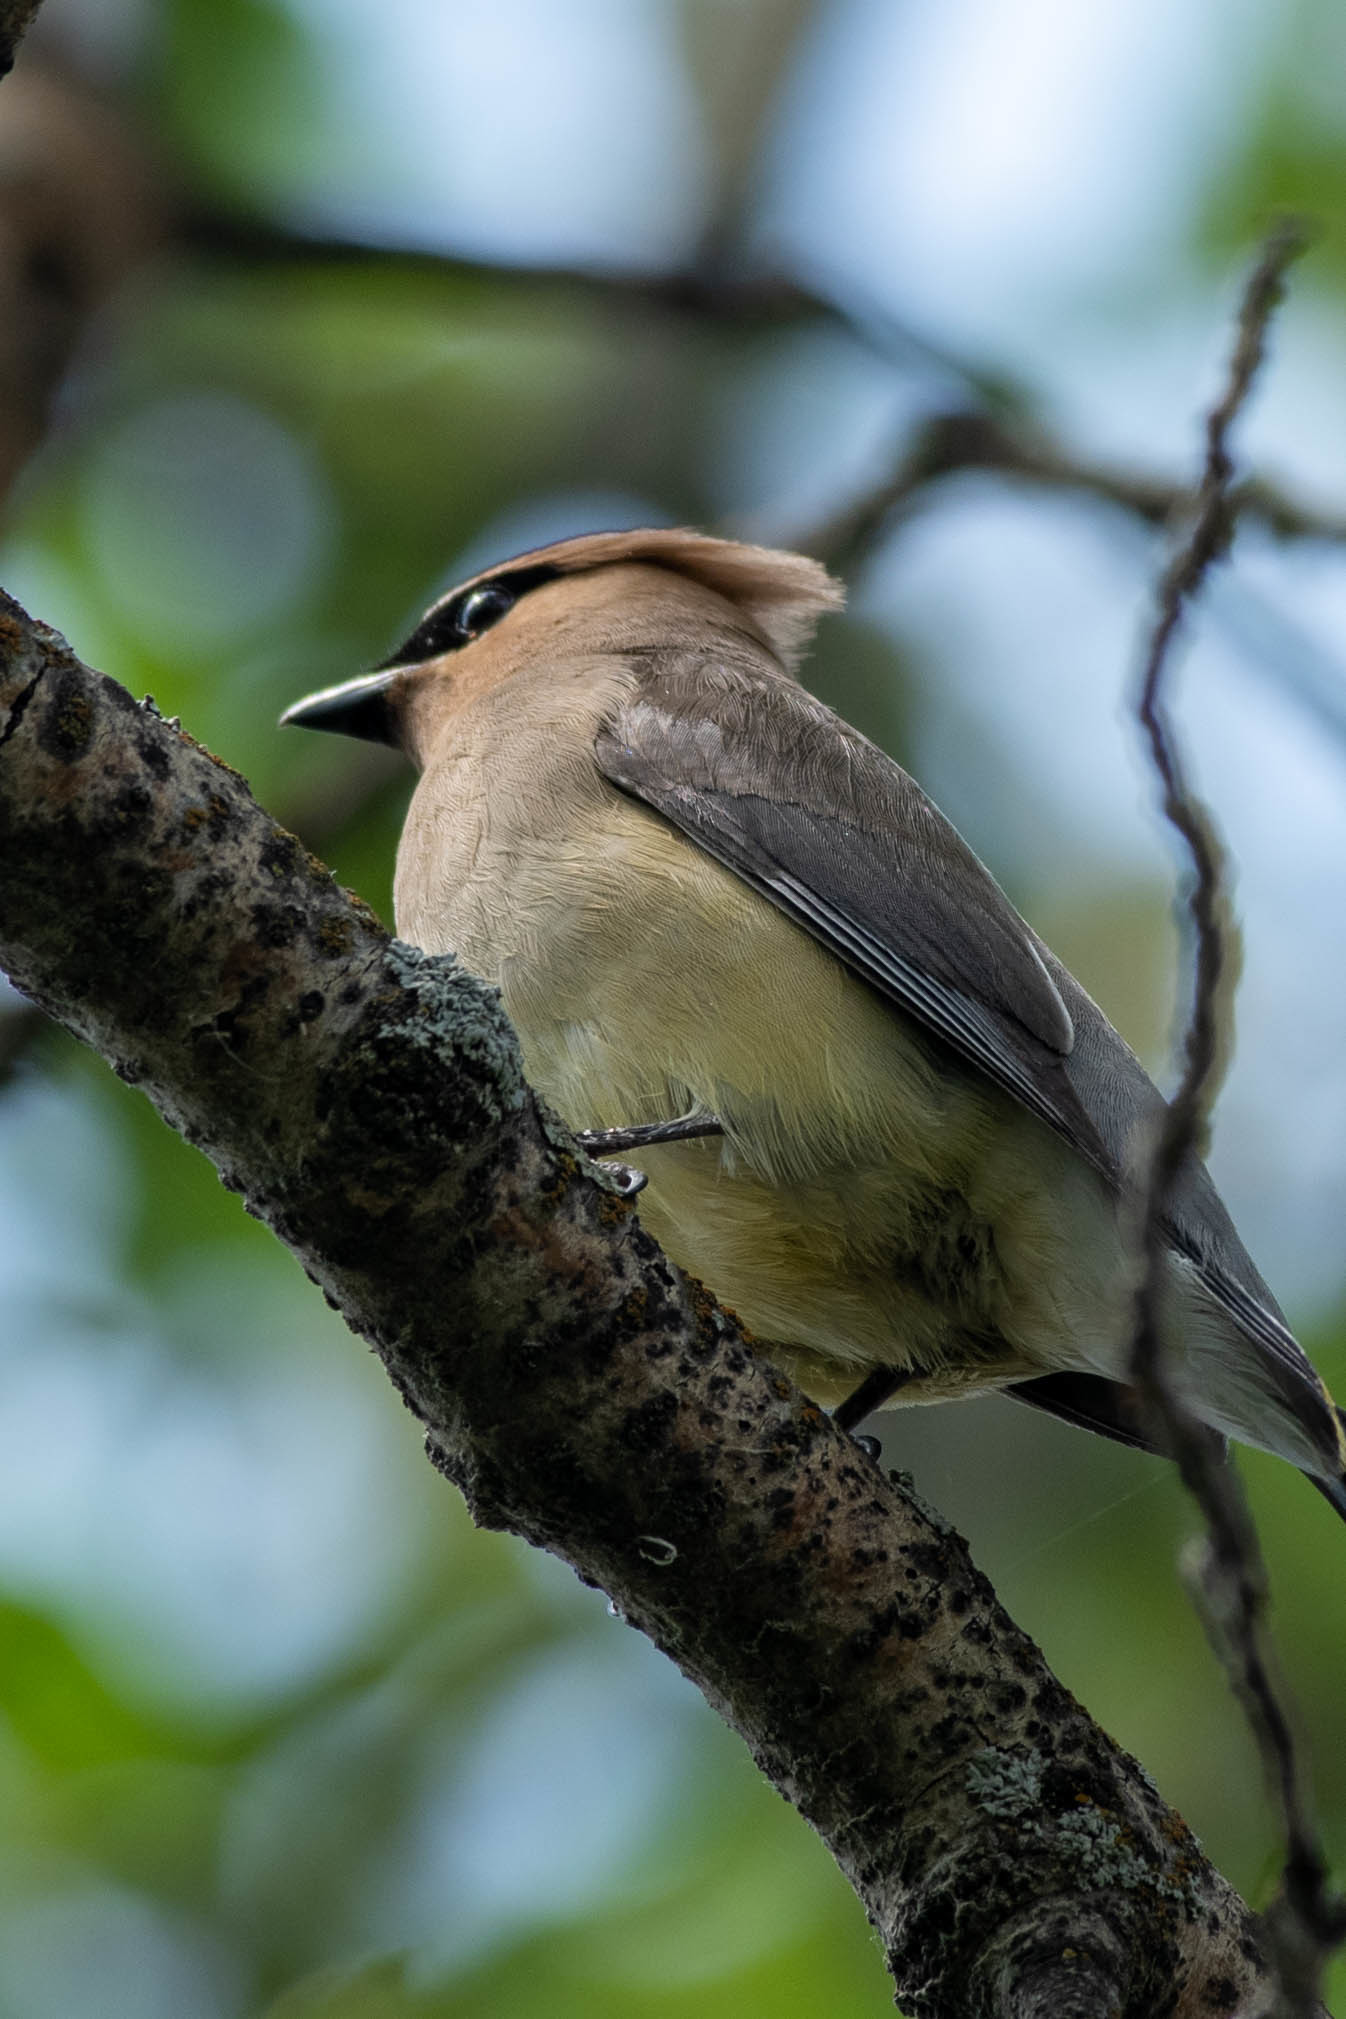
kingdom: Animalia
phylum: Chordata
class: Aves
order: Passeriformes
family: Bombycillidae
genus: Bombycilla
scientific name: Bombycilla cedrorum
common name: Cedar waxwing
